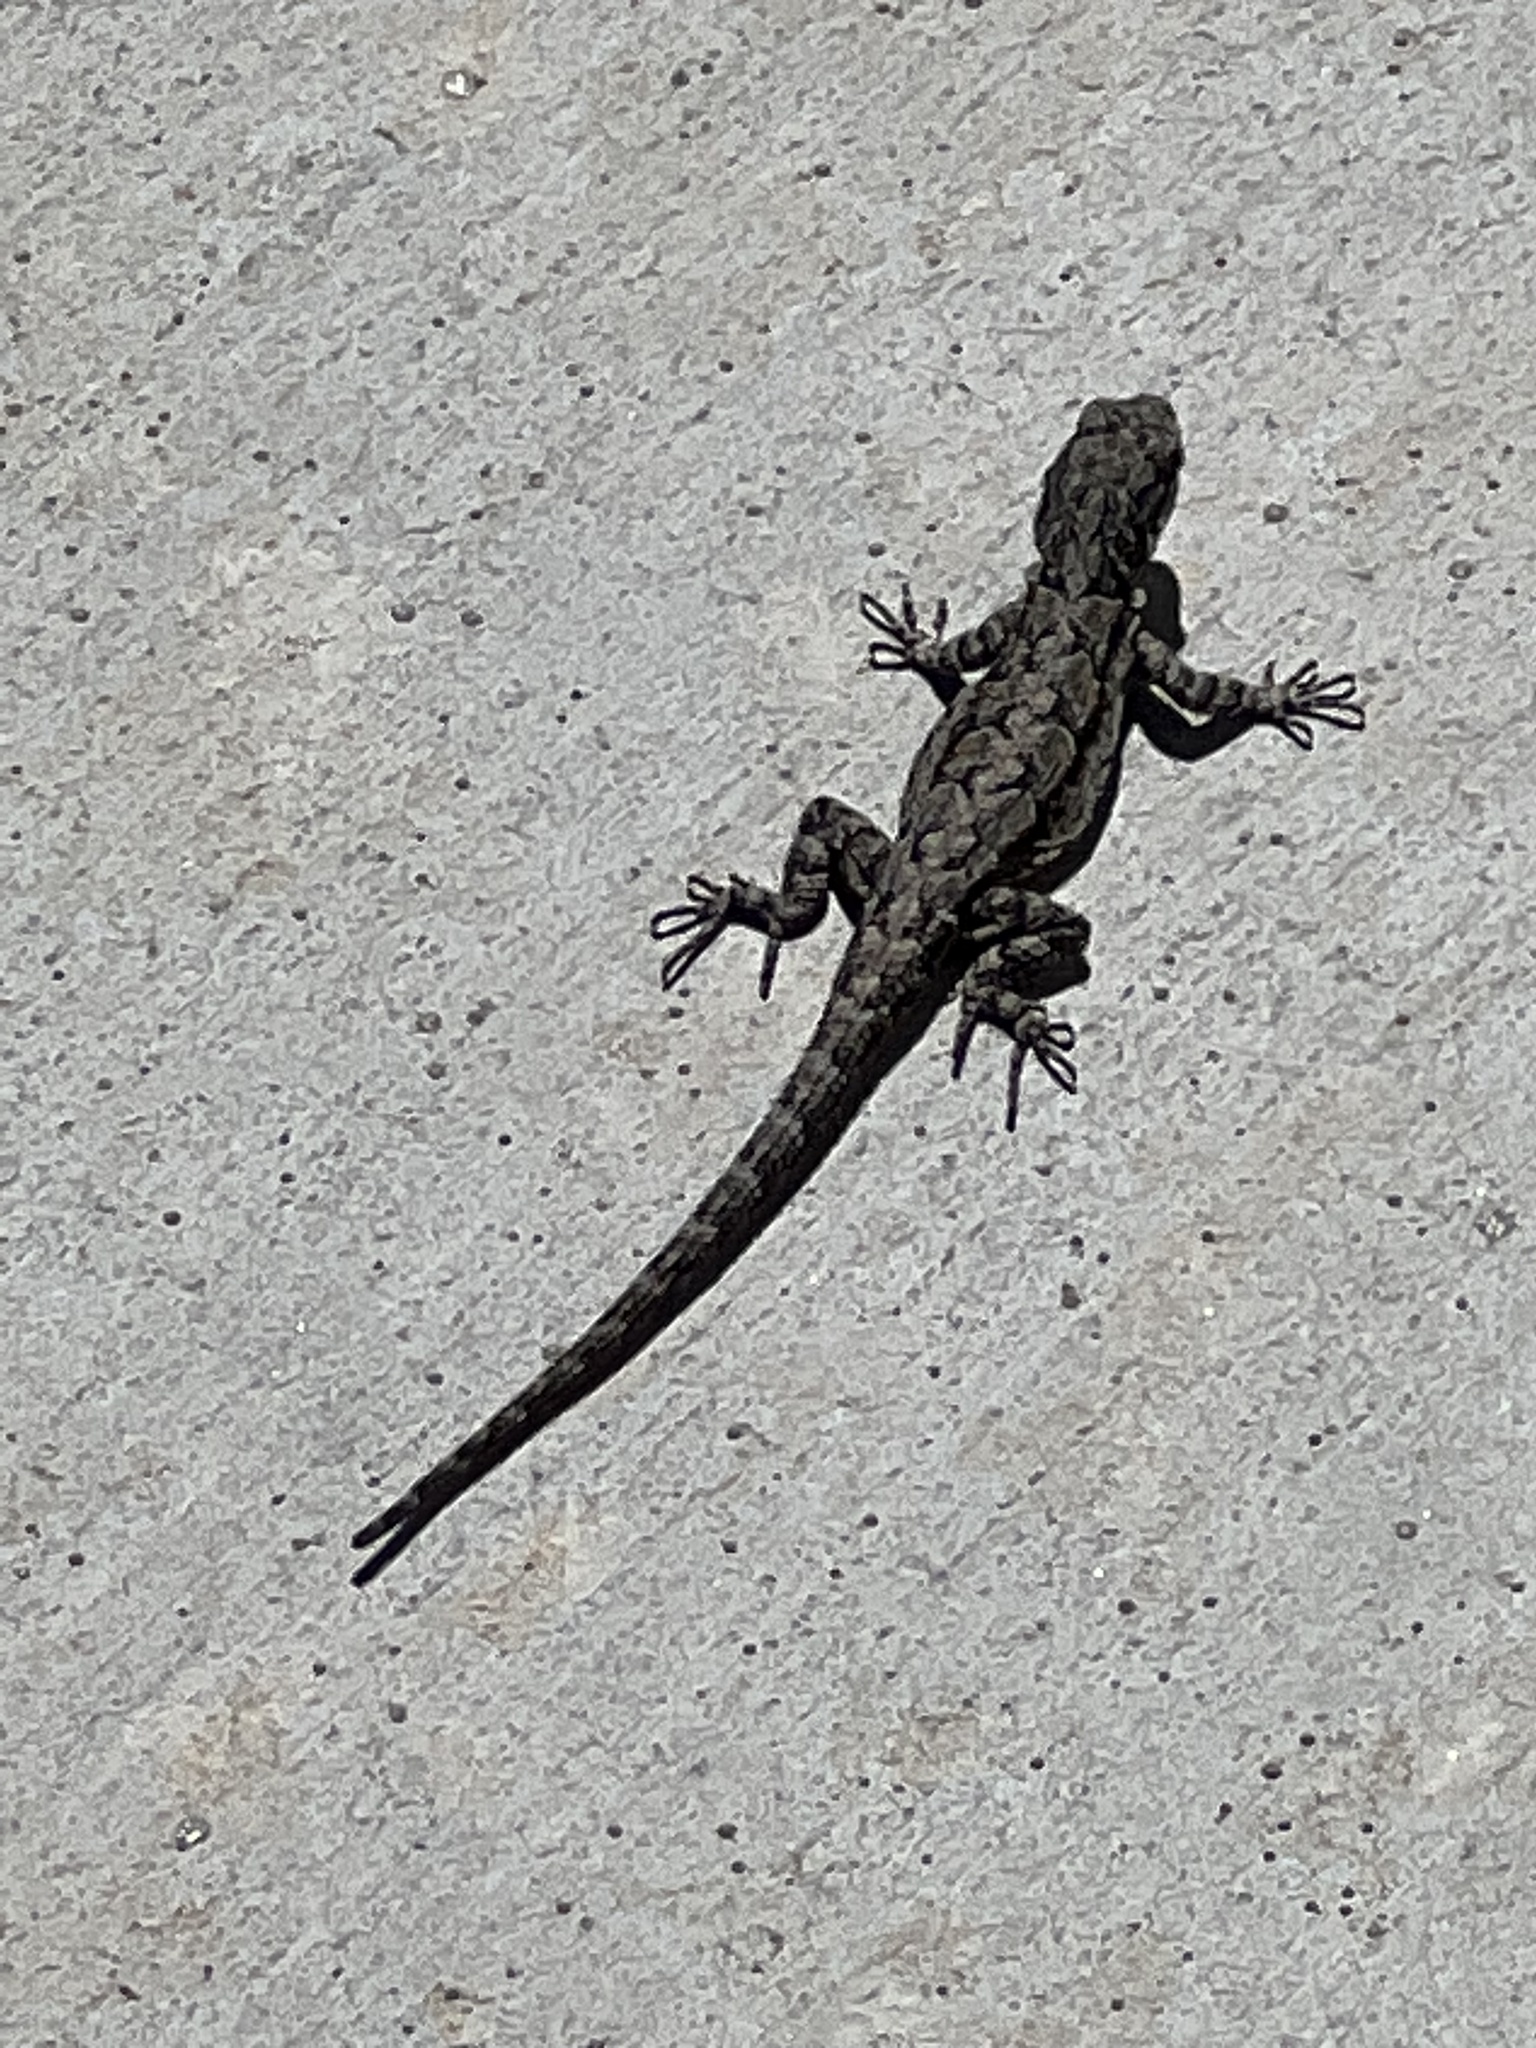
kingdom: Animalia
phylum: Chordata
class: Squamata
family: Phrynosomatidae
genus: Urosaurus
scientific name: Urosaurus ornatus
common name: Ornate tree lizard
